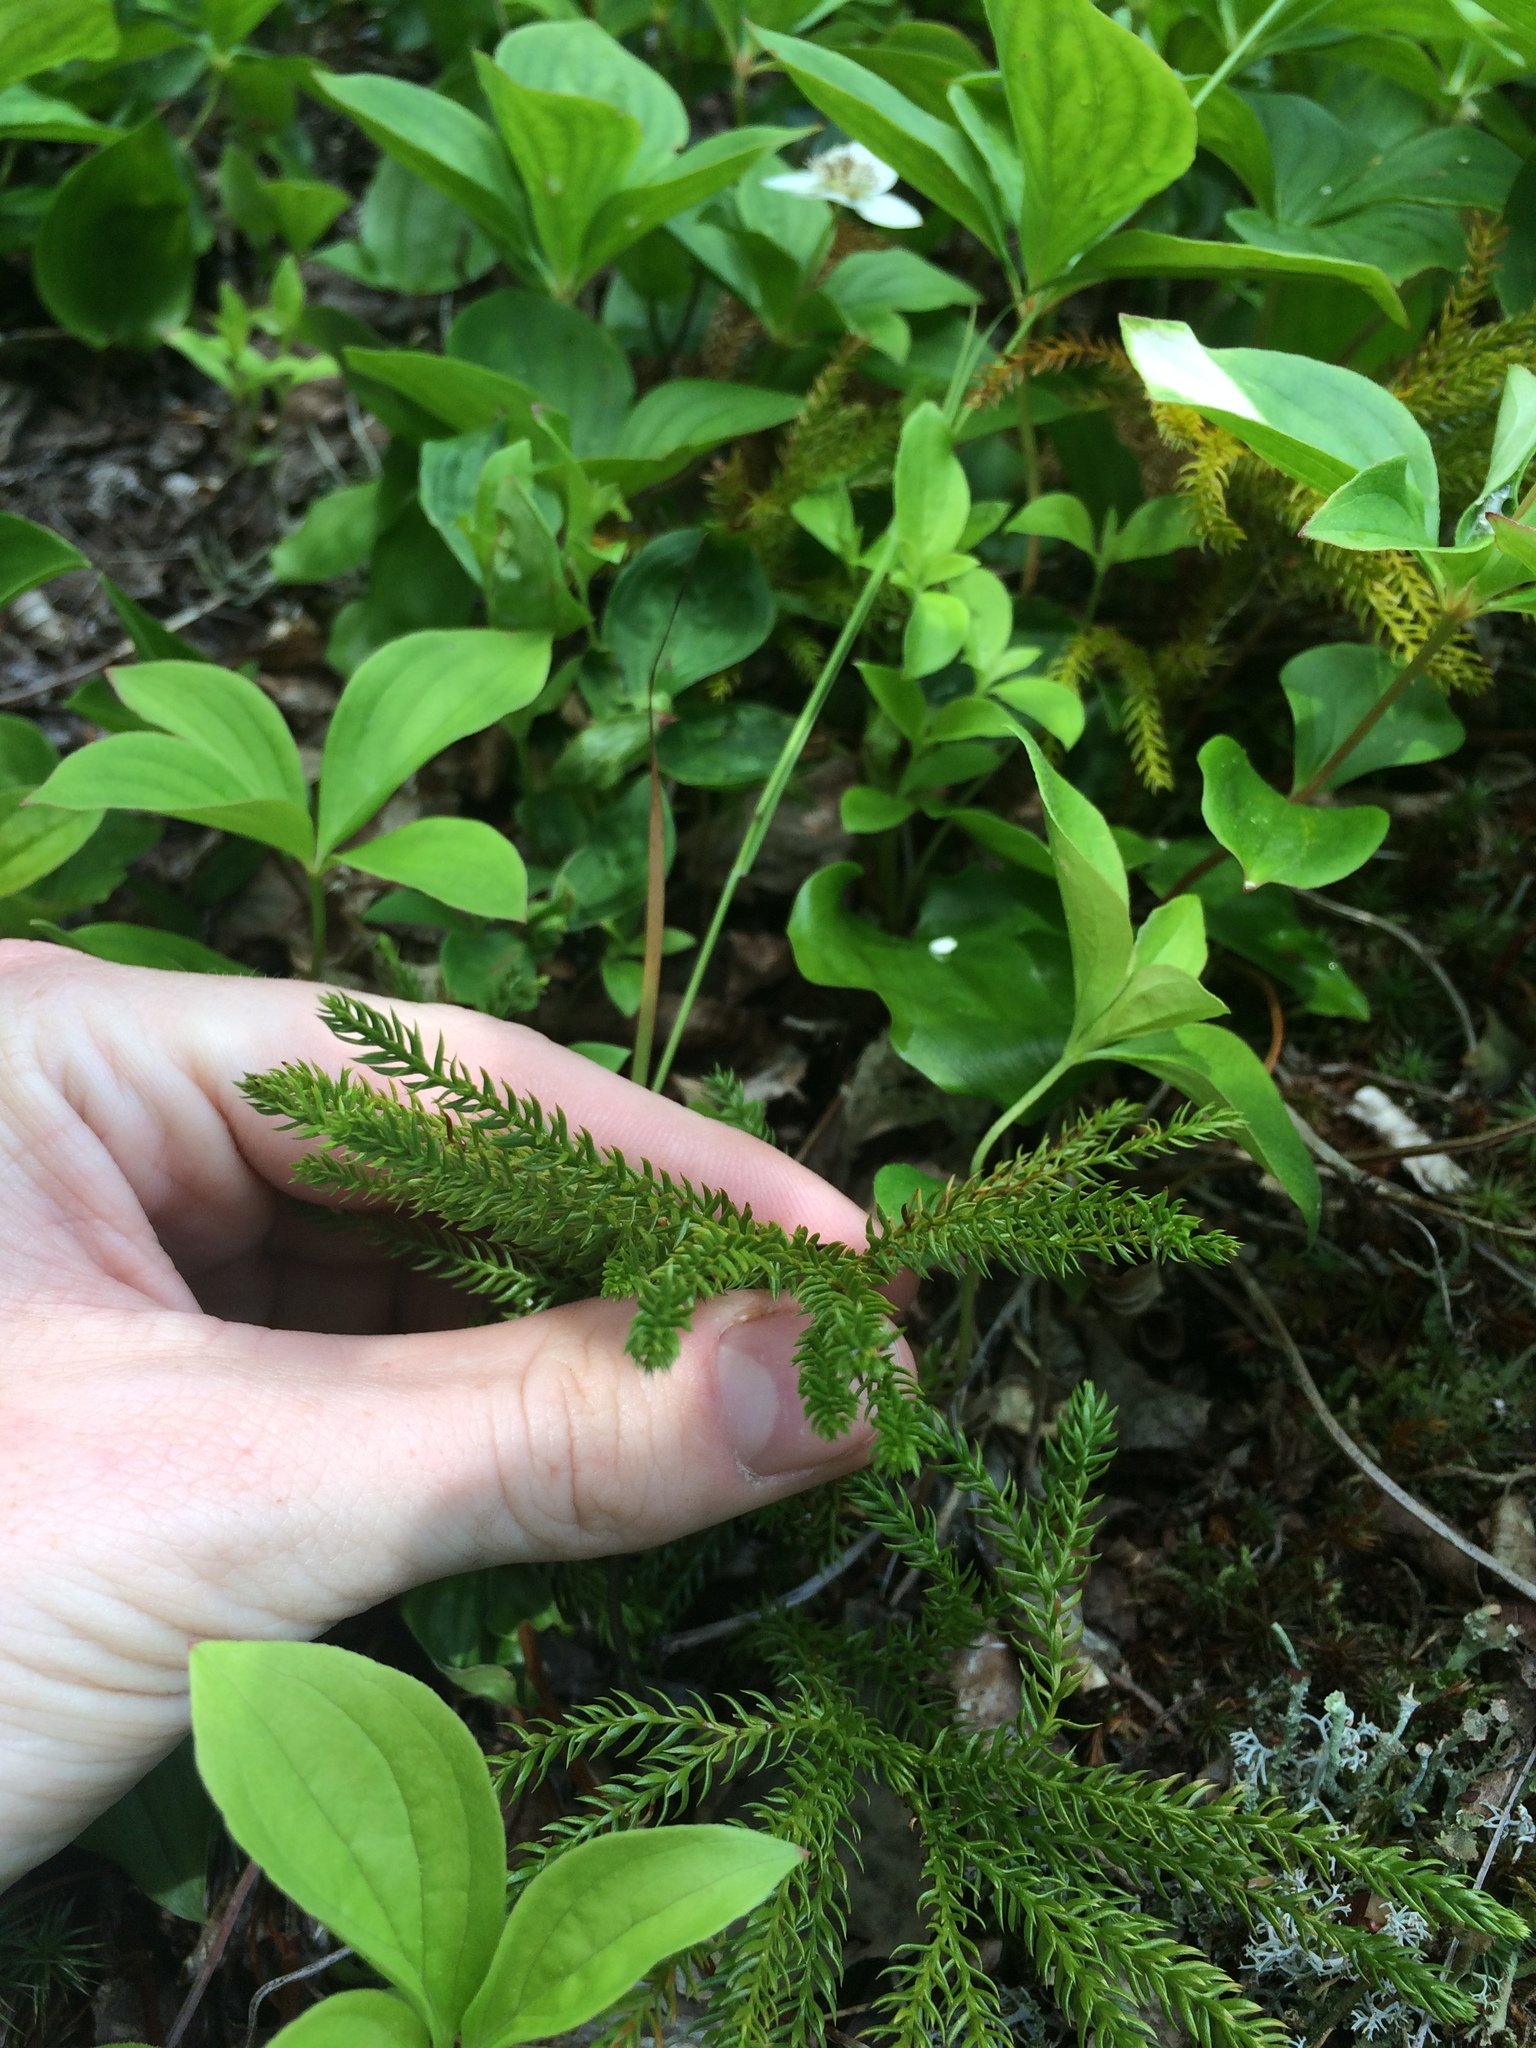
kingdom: Plantae
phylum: Tracheophyta
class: Lycopodiopsida
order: Lycopodiales
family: Lycopodiaceae
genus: Dendrolycopodium
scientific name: Dendrolycopodium dendroideum
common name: Northern tree-clubmoss
